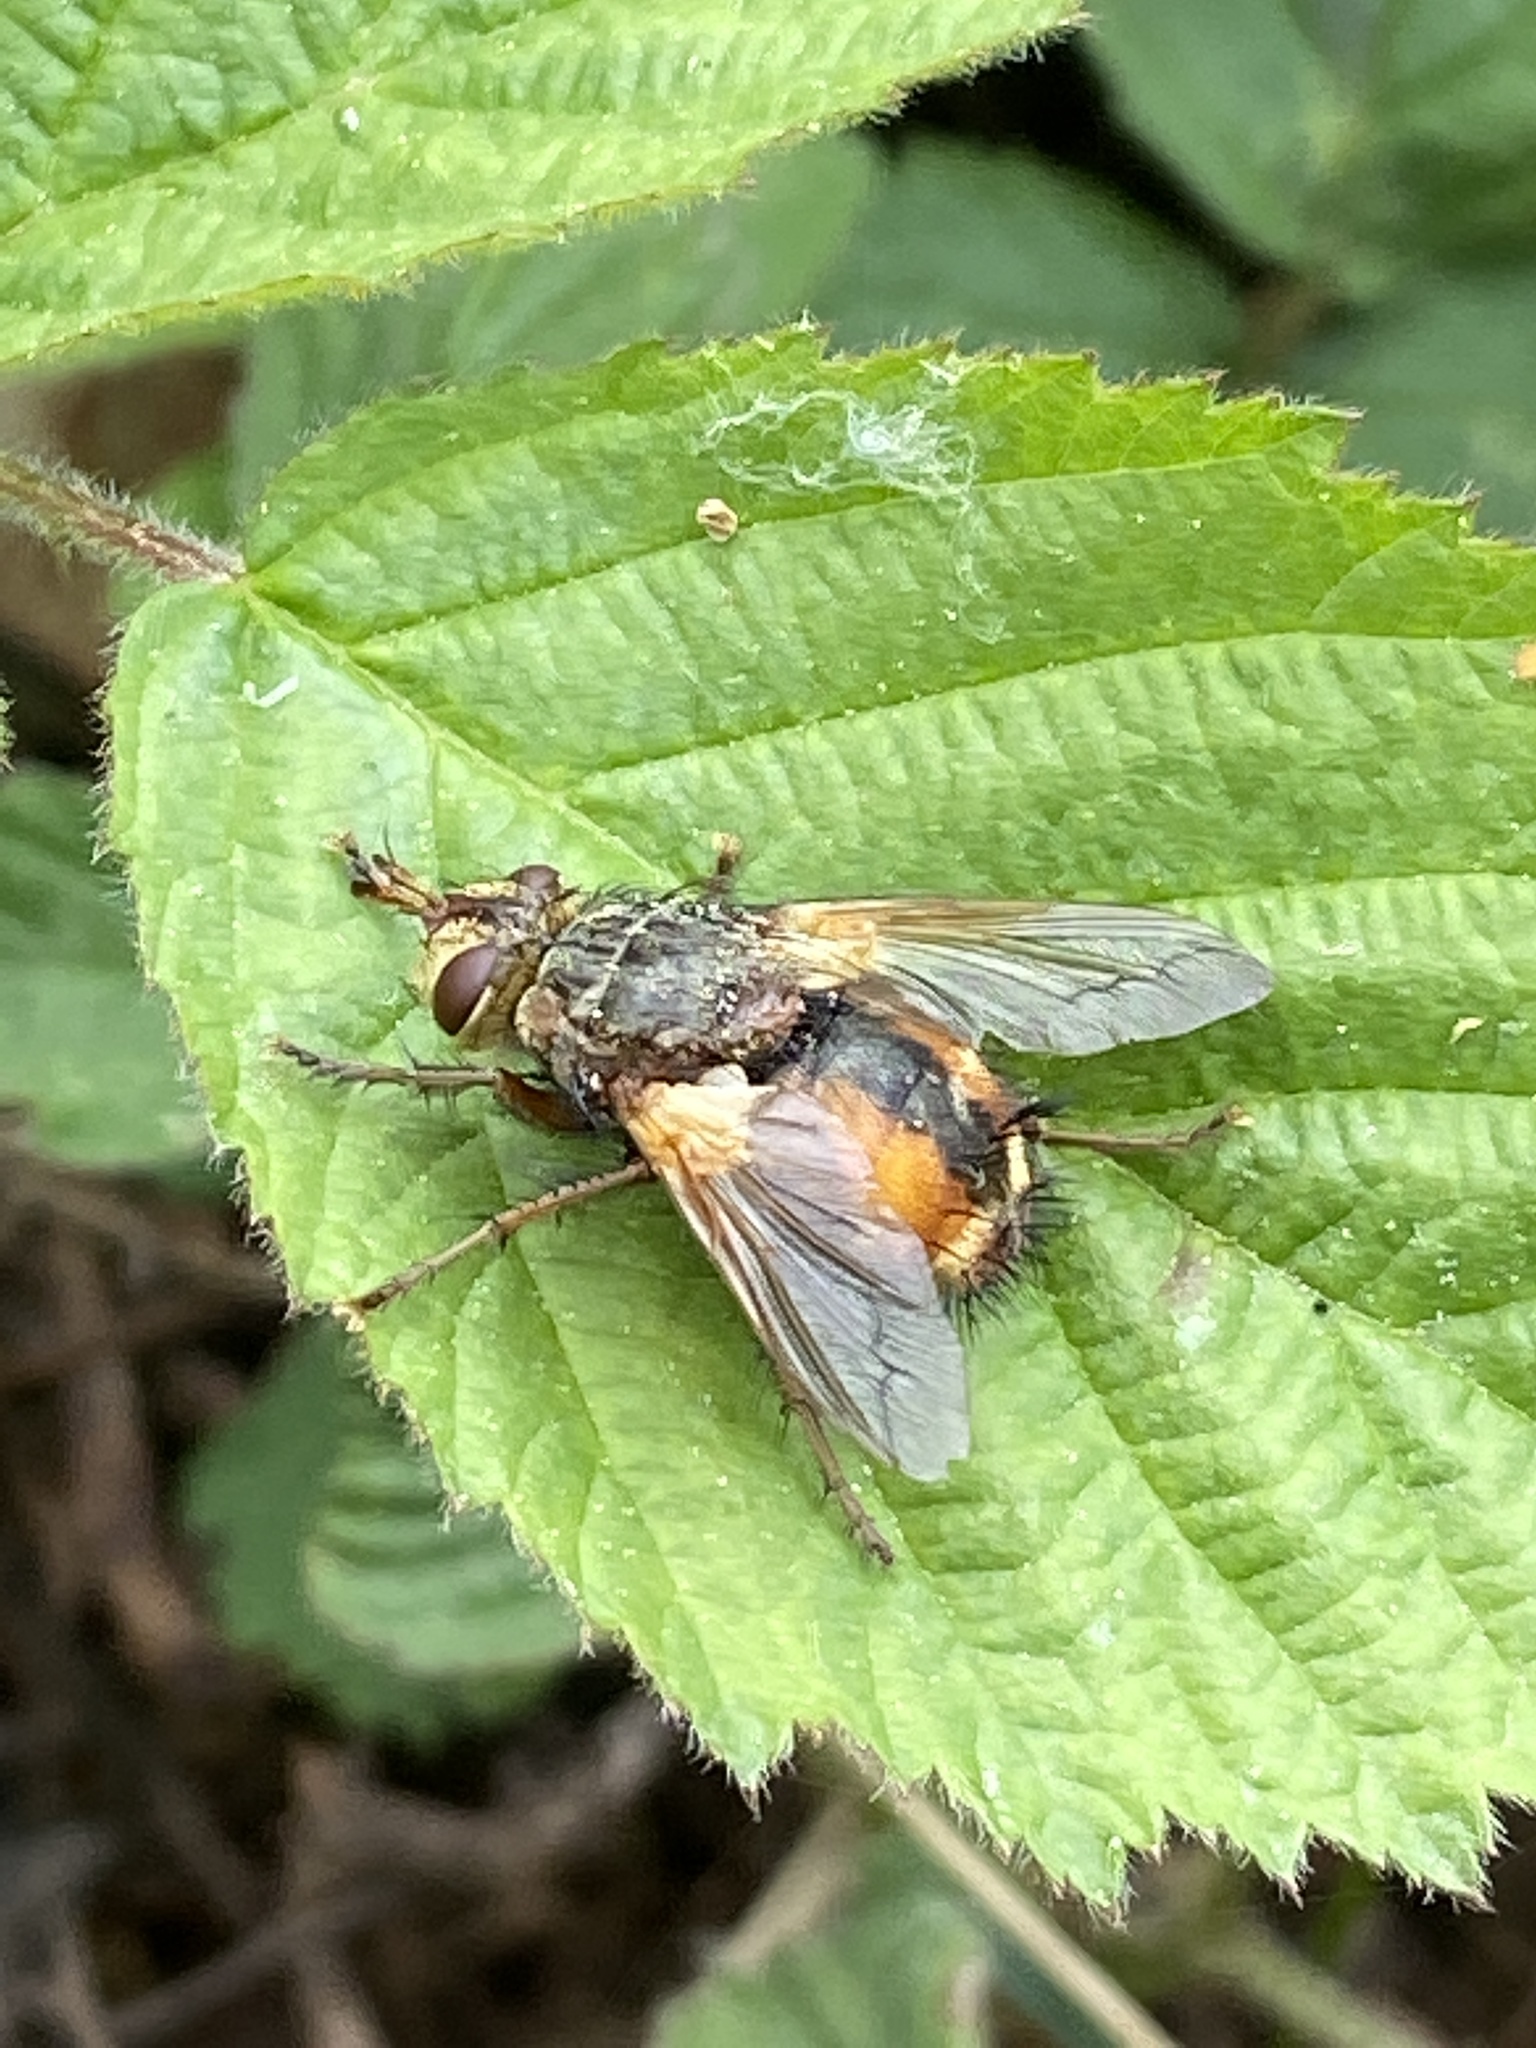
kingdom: Animalia
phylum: Arthropoda
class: Insecta
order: Diptera
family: Tachinidae
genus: Tachina
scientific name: Tachina fera
